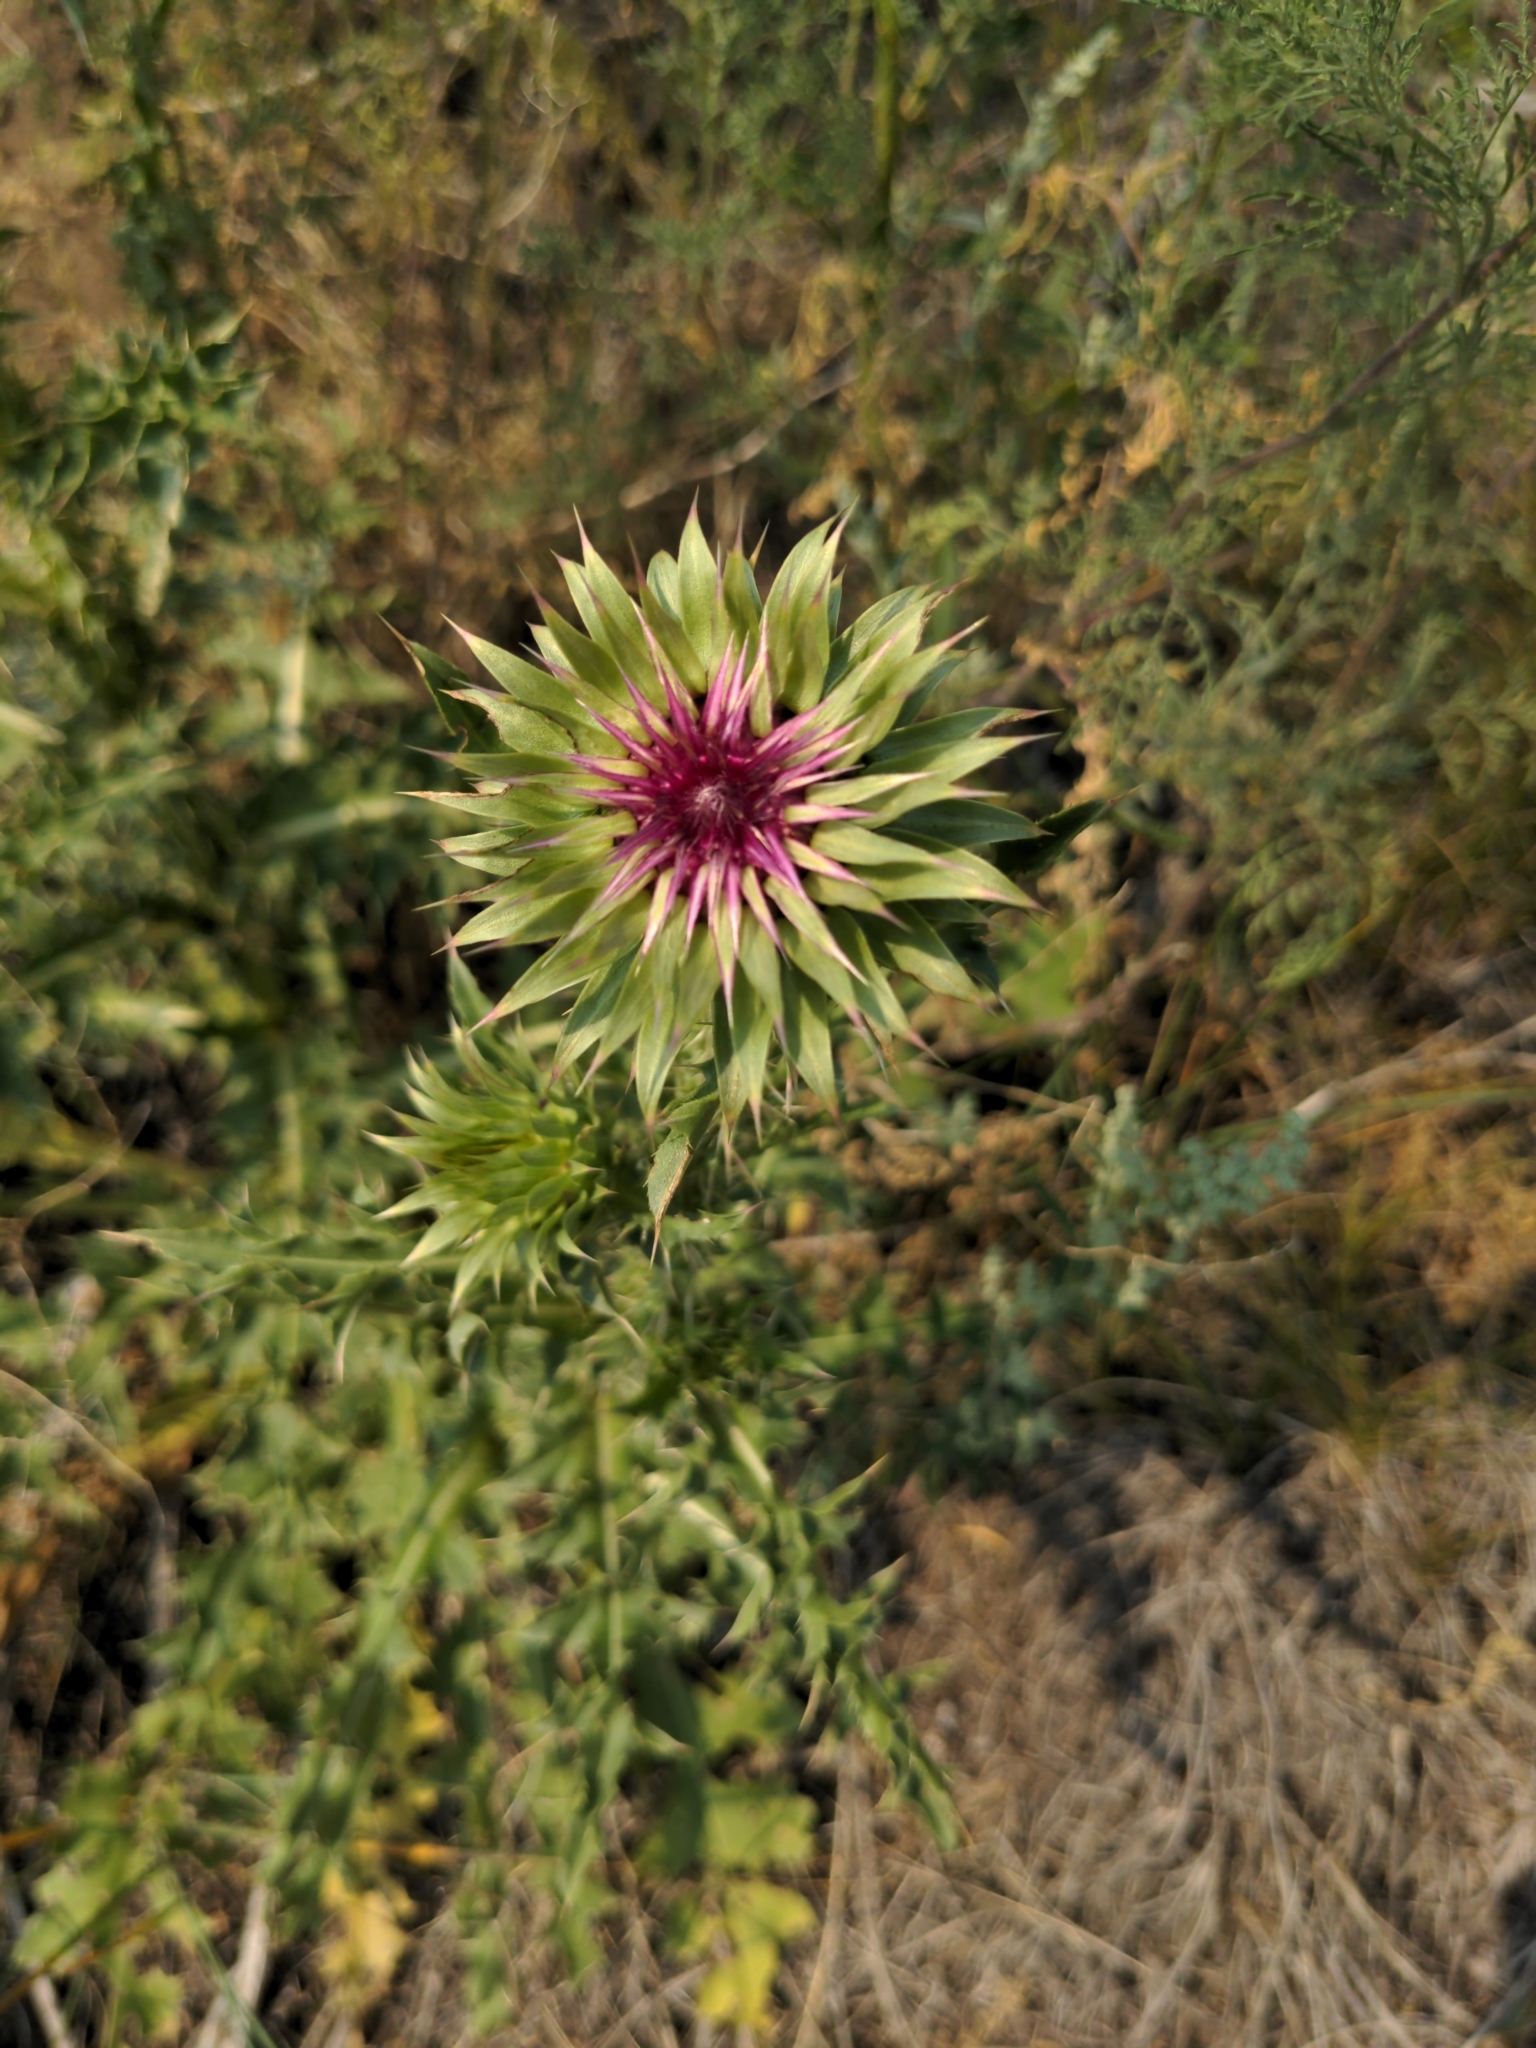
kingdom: Plantae
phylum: Tracheophyta
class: Magnoliopsida
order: Asterales
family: Asteraceae
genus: Carduus
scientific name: Carduus nutans
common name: Musk thistle
